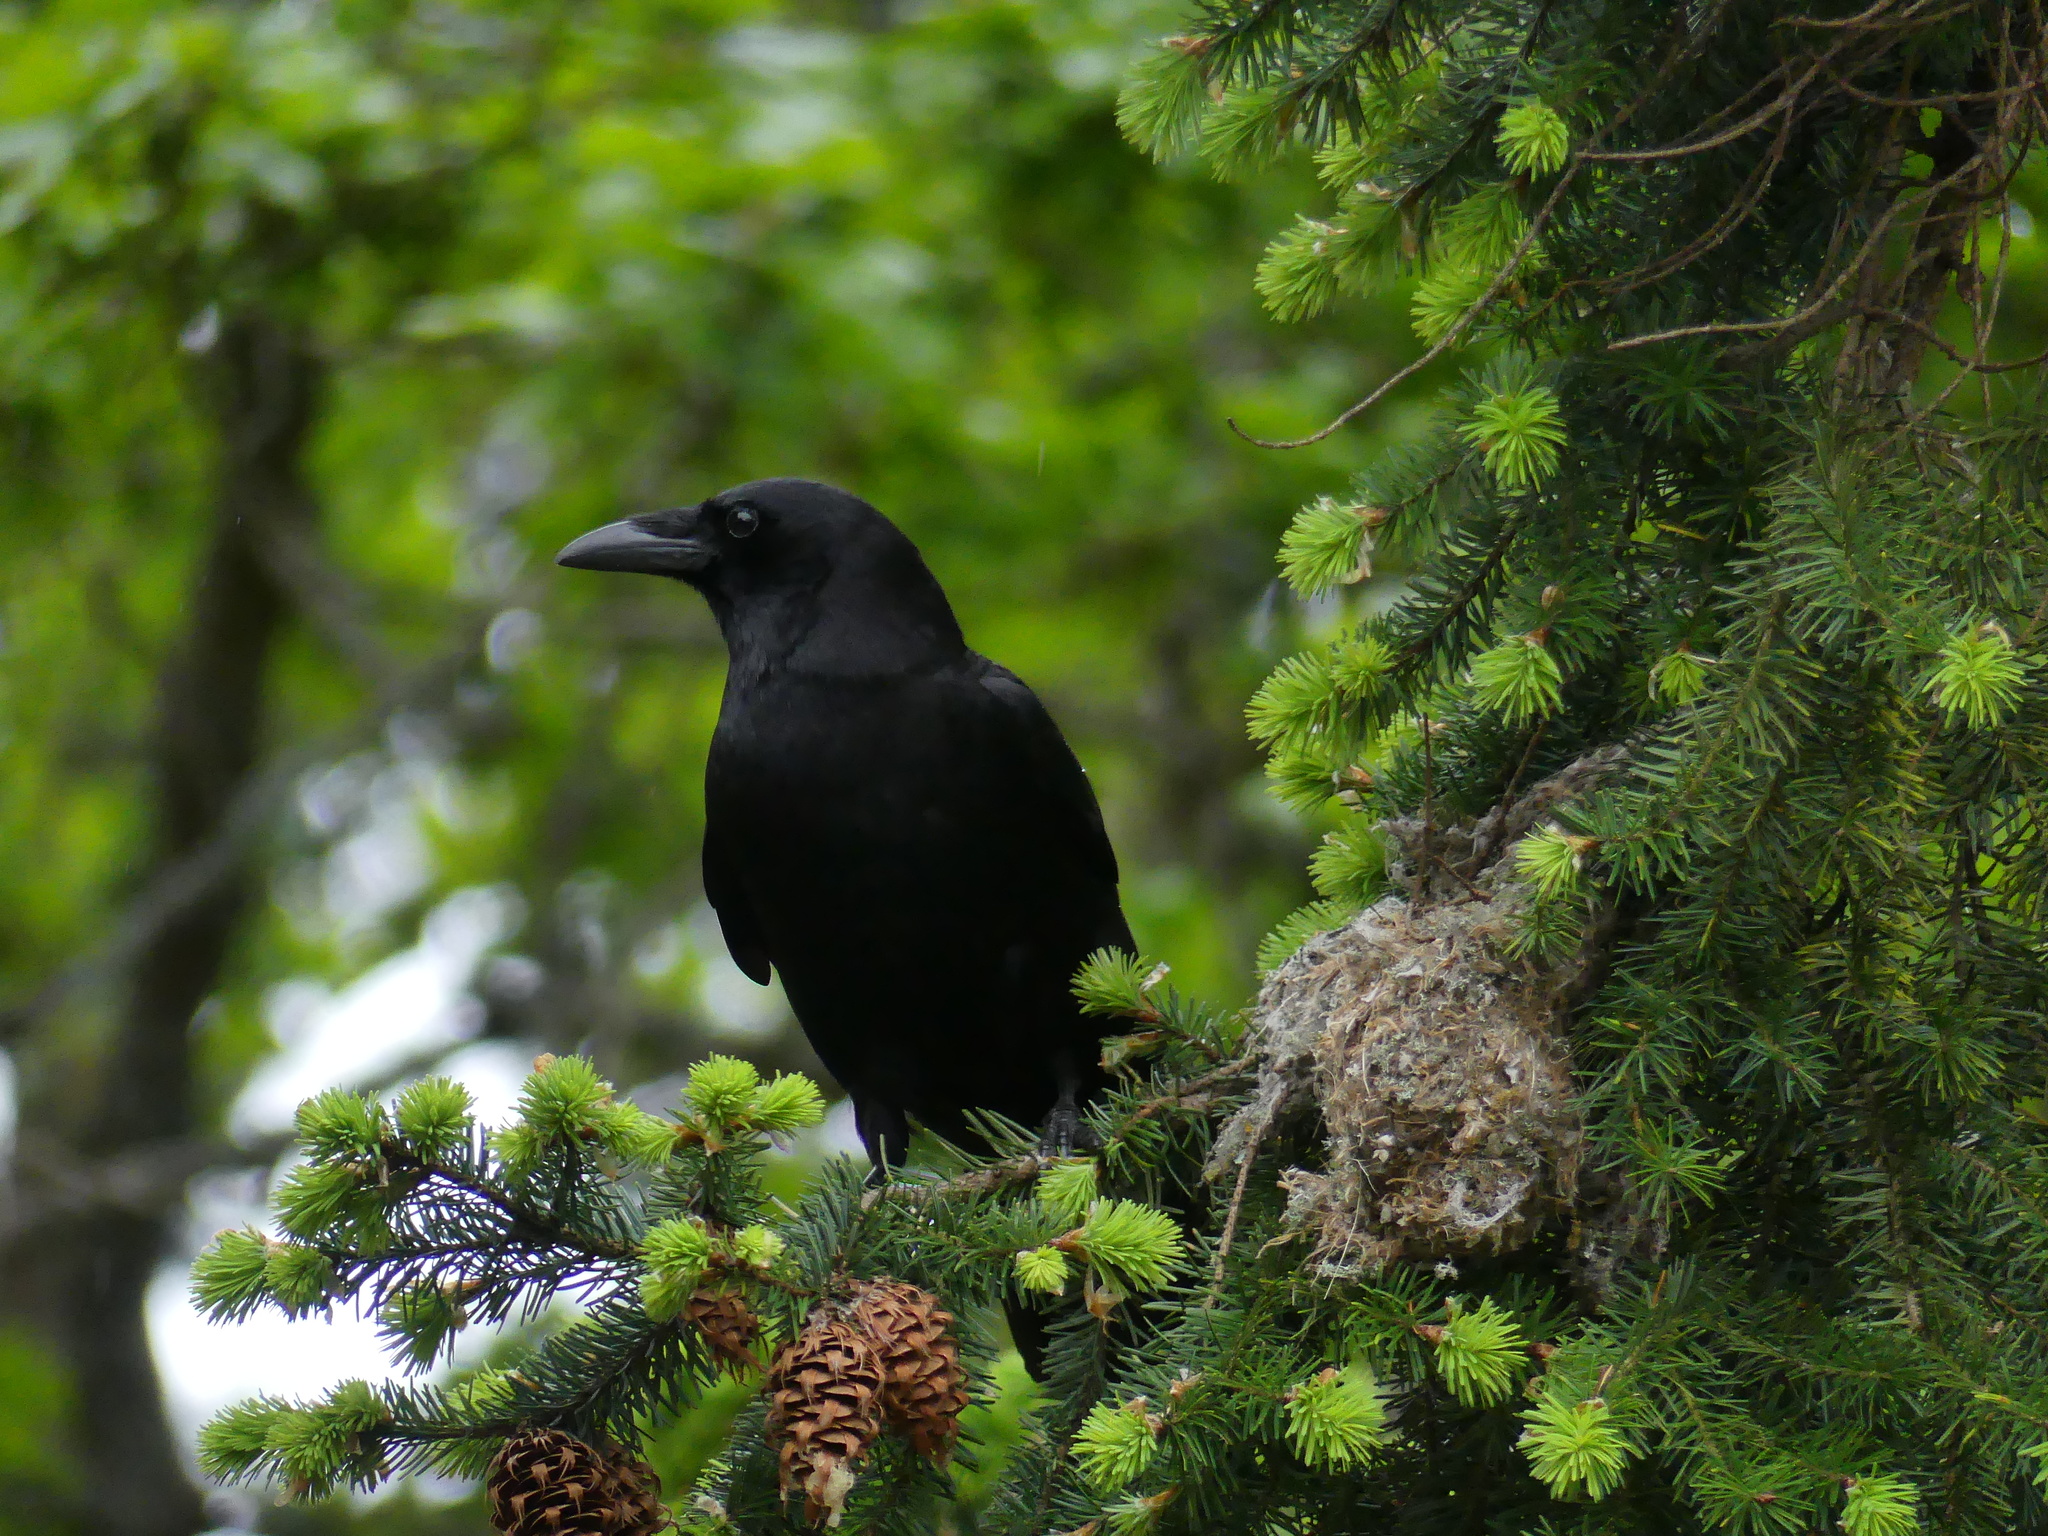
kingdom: Animalia
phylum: Chordata
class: Aves
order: Passeriformes
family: Corvidae
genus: Corvus
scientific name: Corvus brachyrhynchos
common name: American crow
